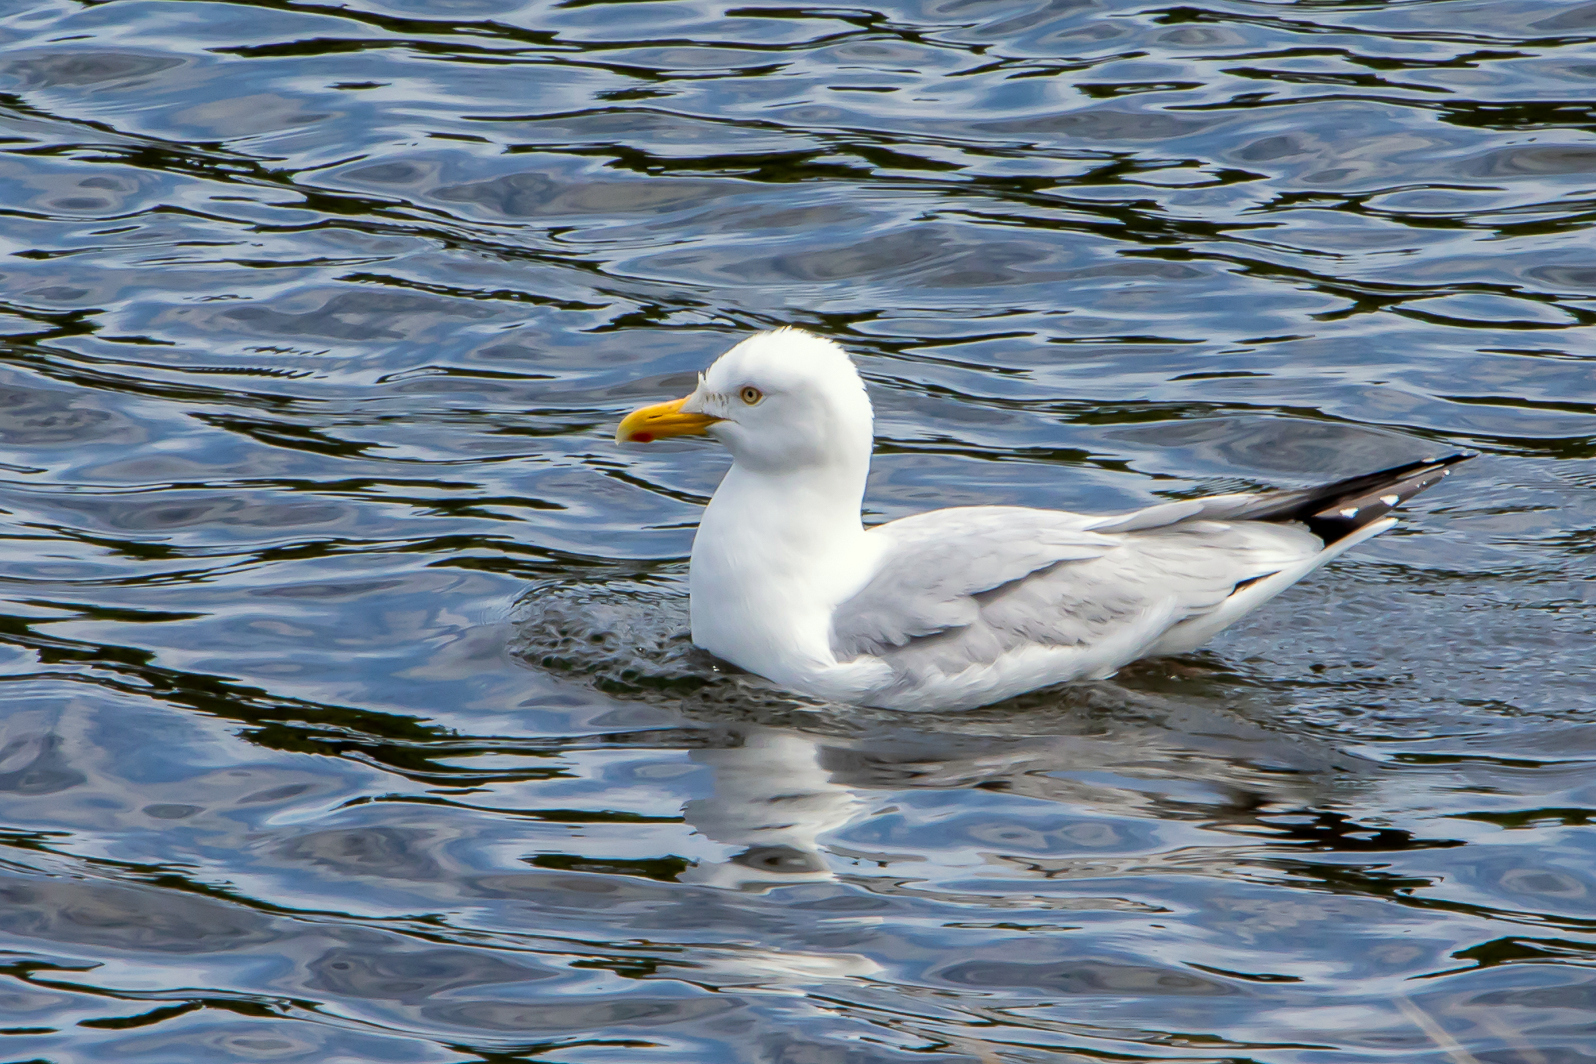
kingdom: Animalia
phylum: Chordata
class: Aves
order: Charadriiformes
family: Laridae
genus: Larus
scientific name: Larus argentatus
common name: Herring gull
